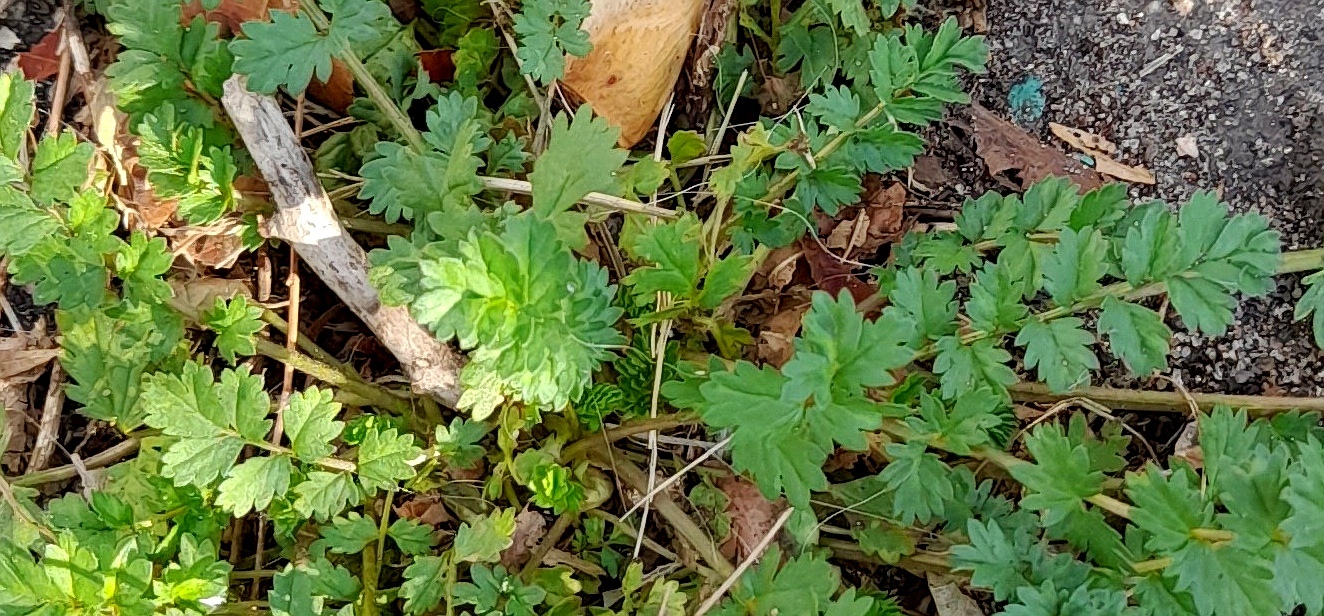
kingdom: Plantae
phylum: Tracheophyta
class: Magnoliopsida
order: Rosales
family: Rosaceae
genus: Potentilla
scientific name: Potentilla supina
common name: Prostrate cinquefoil
